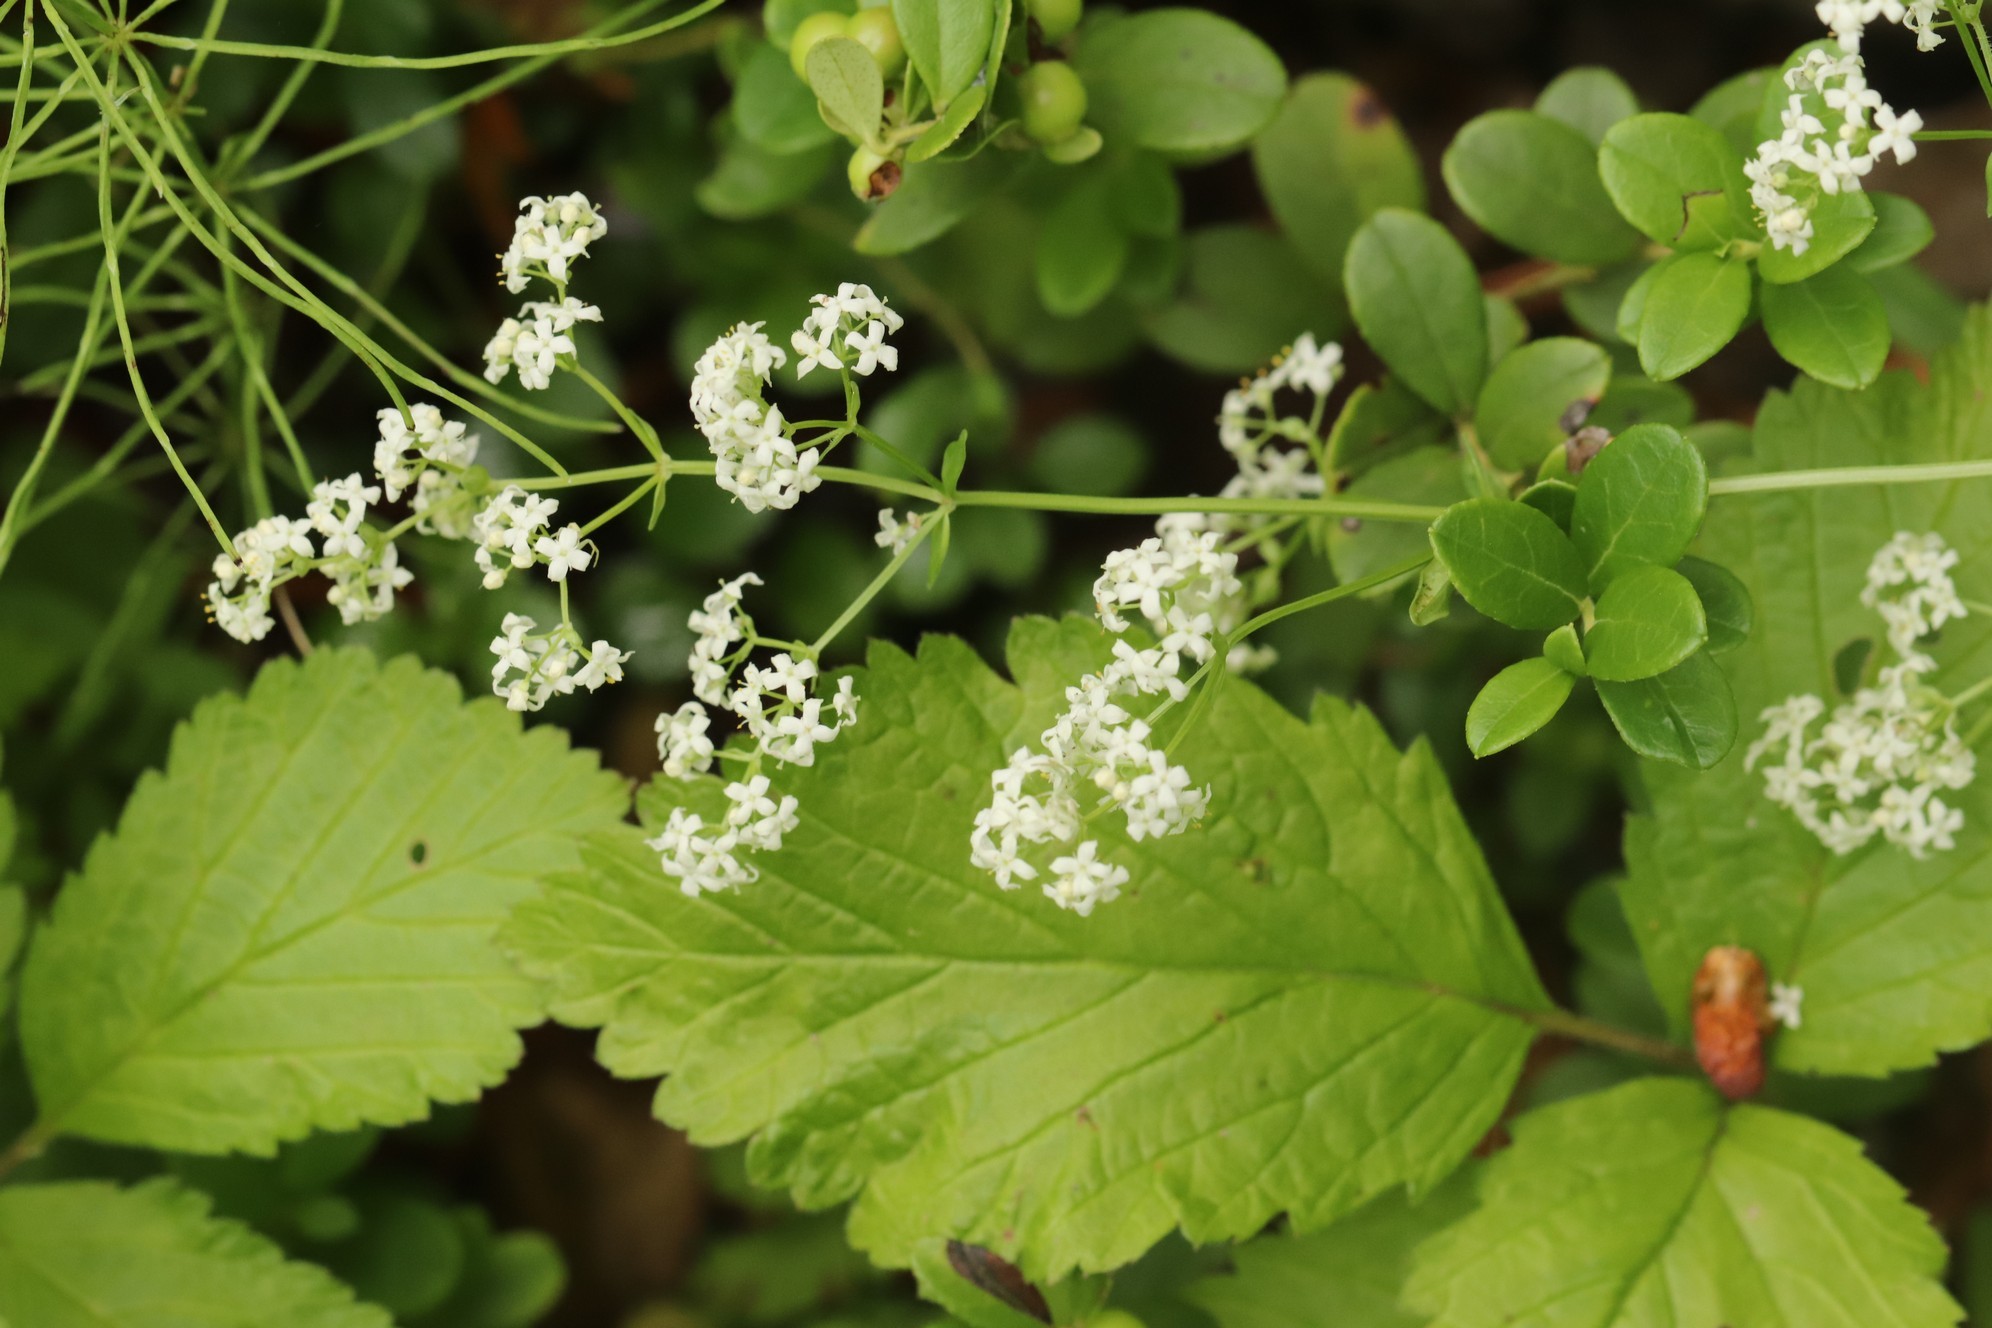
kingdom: Plantae
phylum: Tracheophyta
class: Magnoliopsida
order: Gentianales
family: Rubiaceae
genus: Galium
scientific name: Galium boreale
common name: Northern bedstraw
